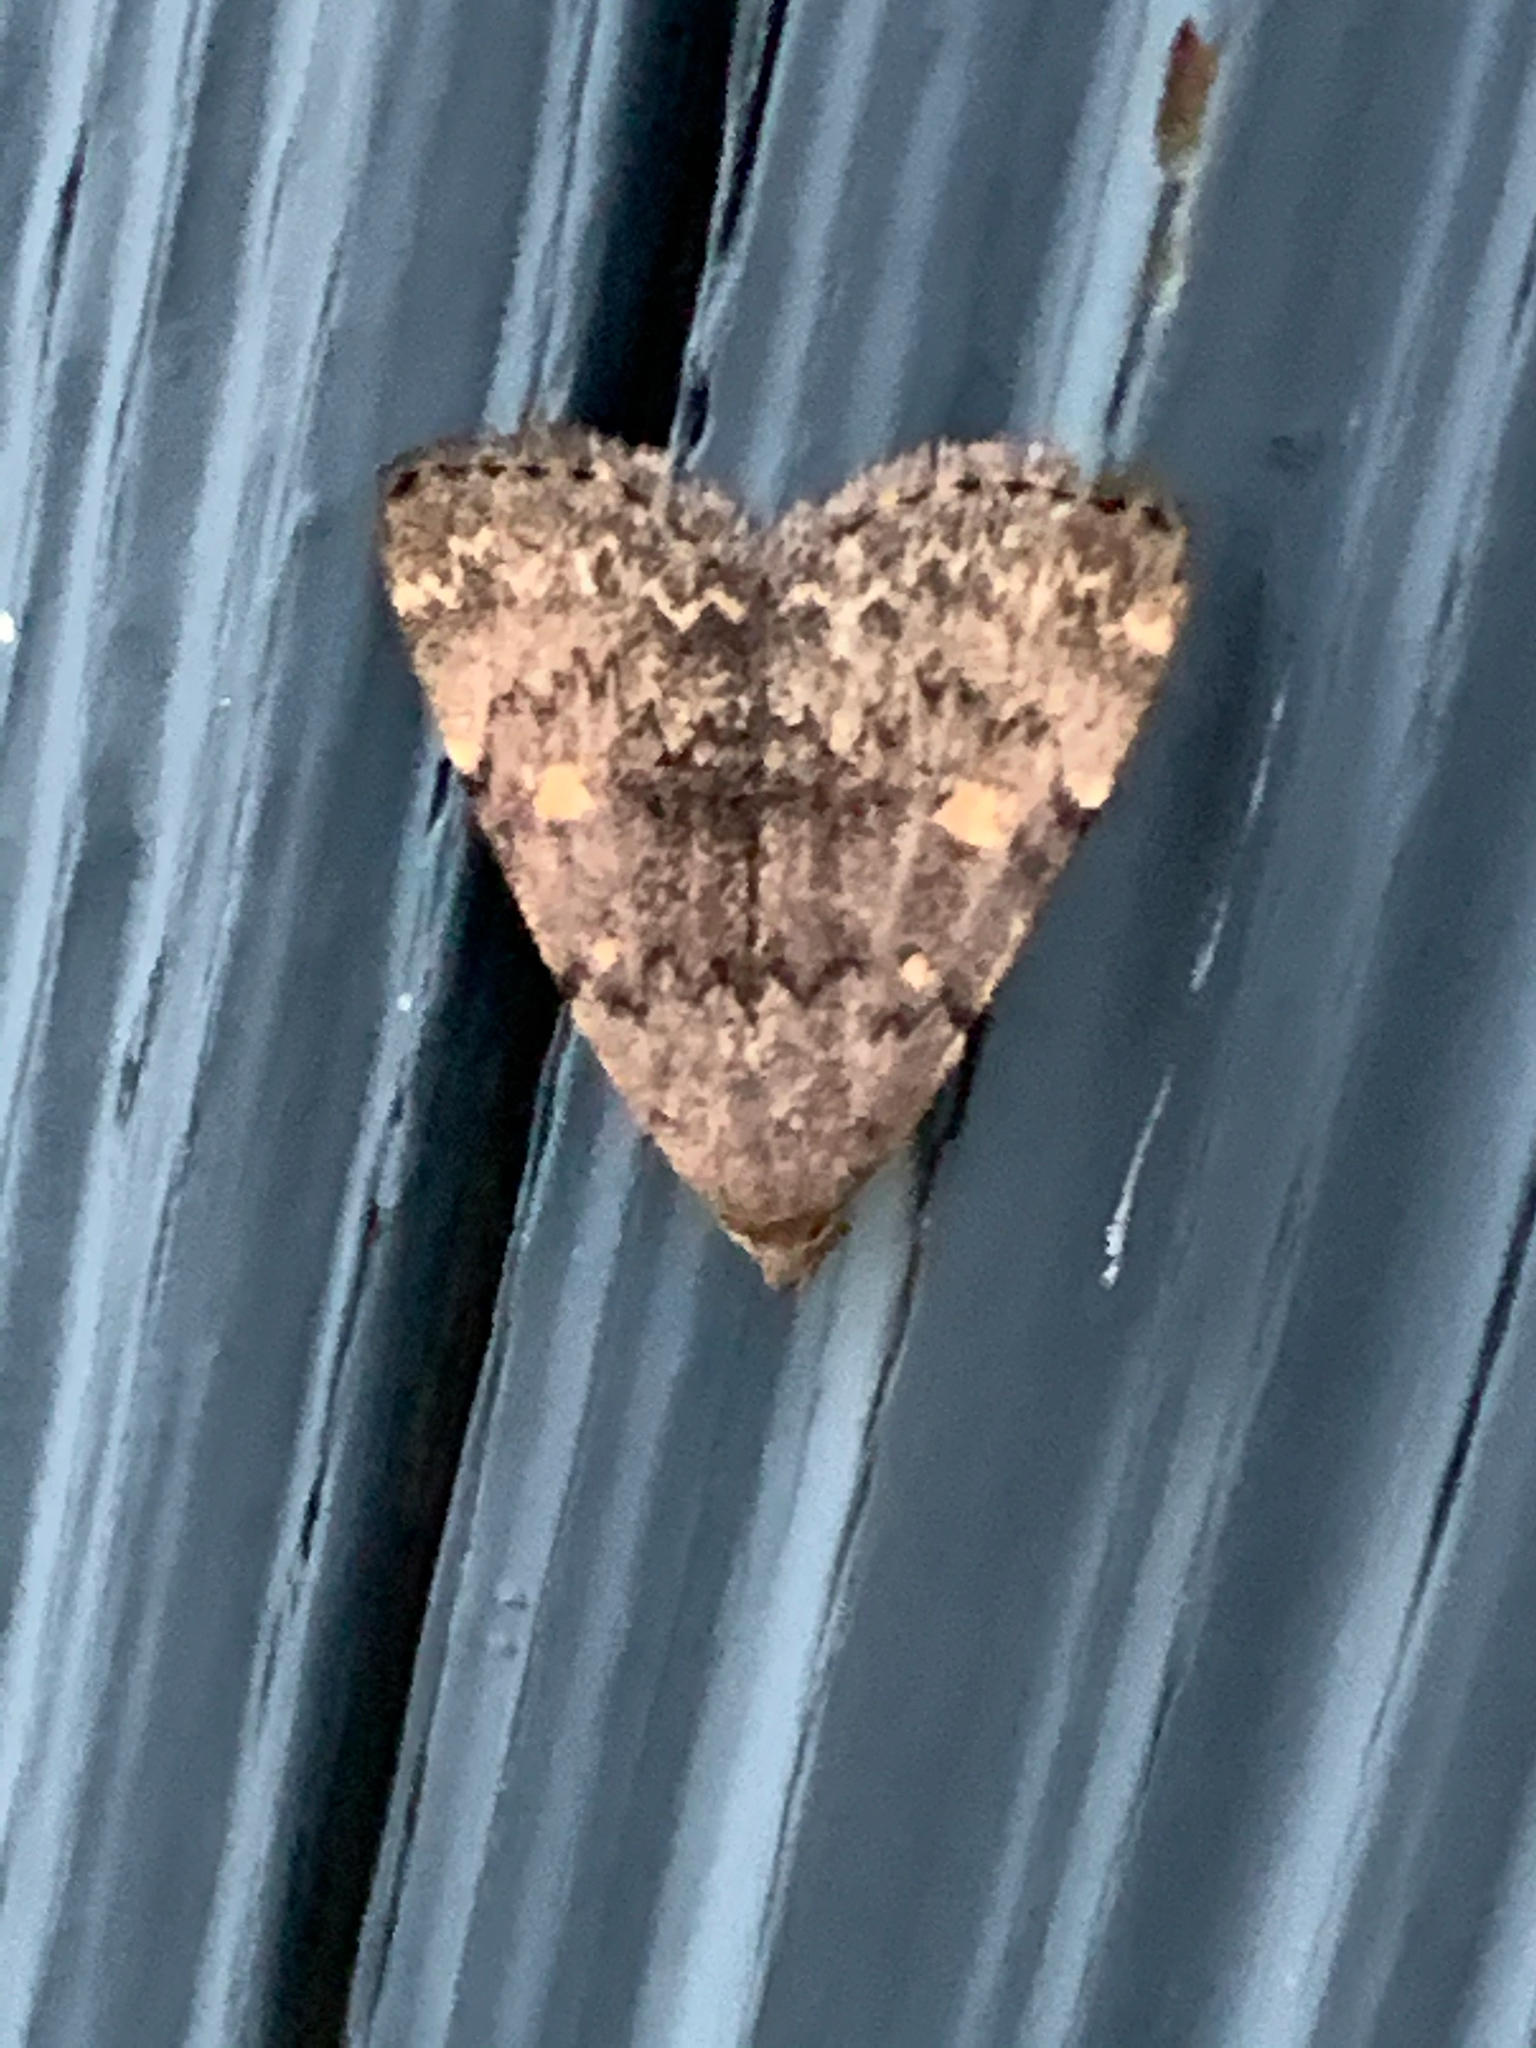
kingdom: Animalia
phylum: Arthropoda
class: Insecta
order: Lepidoptera
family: Erebidae
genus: Idia
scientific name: Idia aemula
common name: Common idia moth
